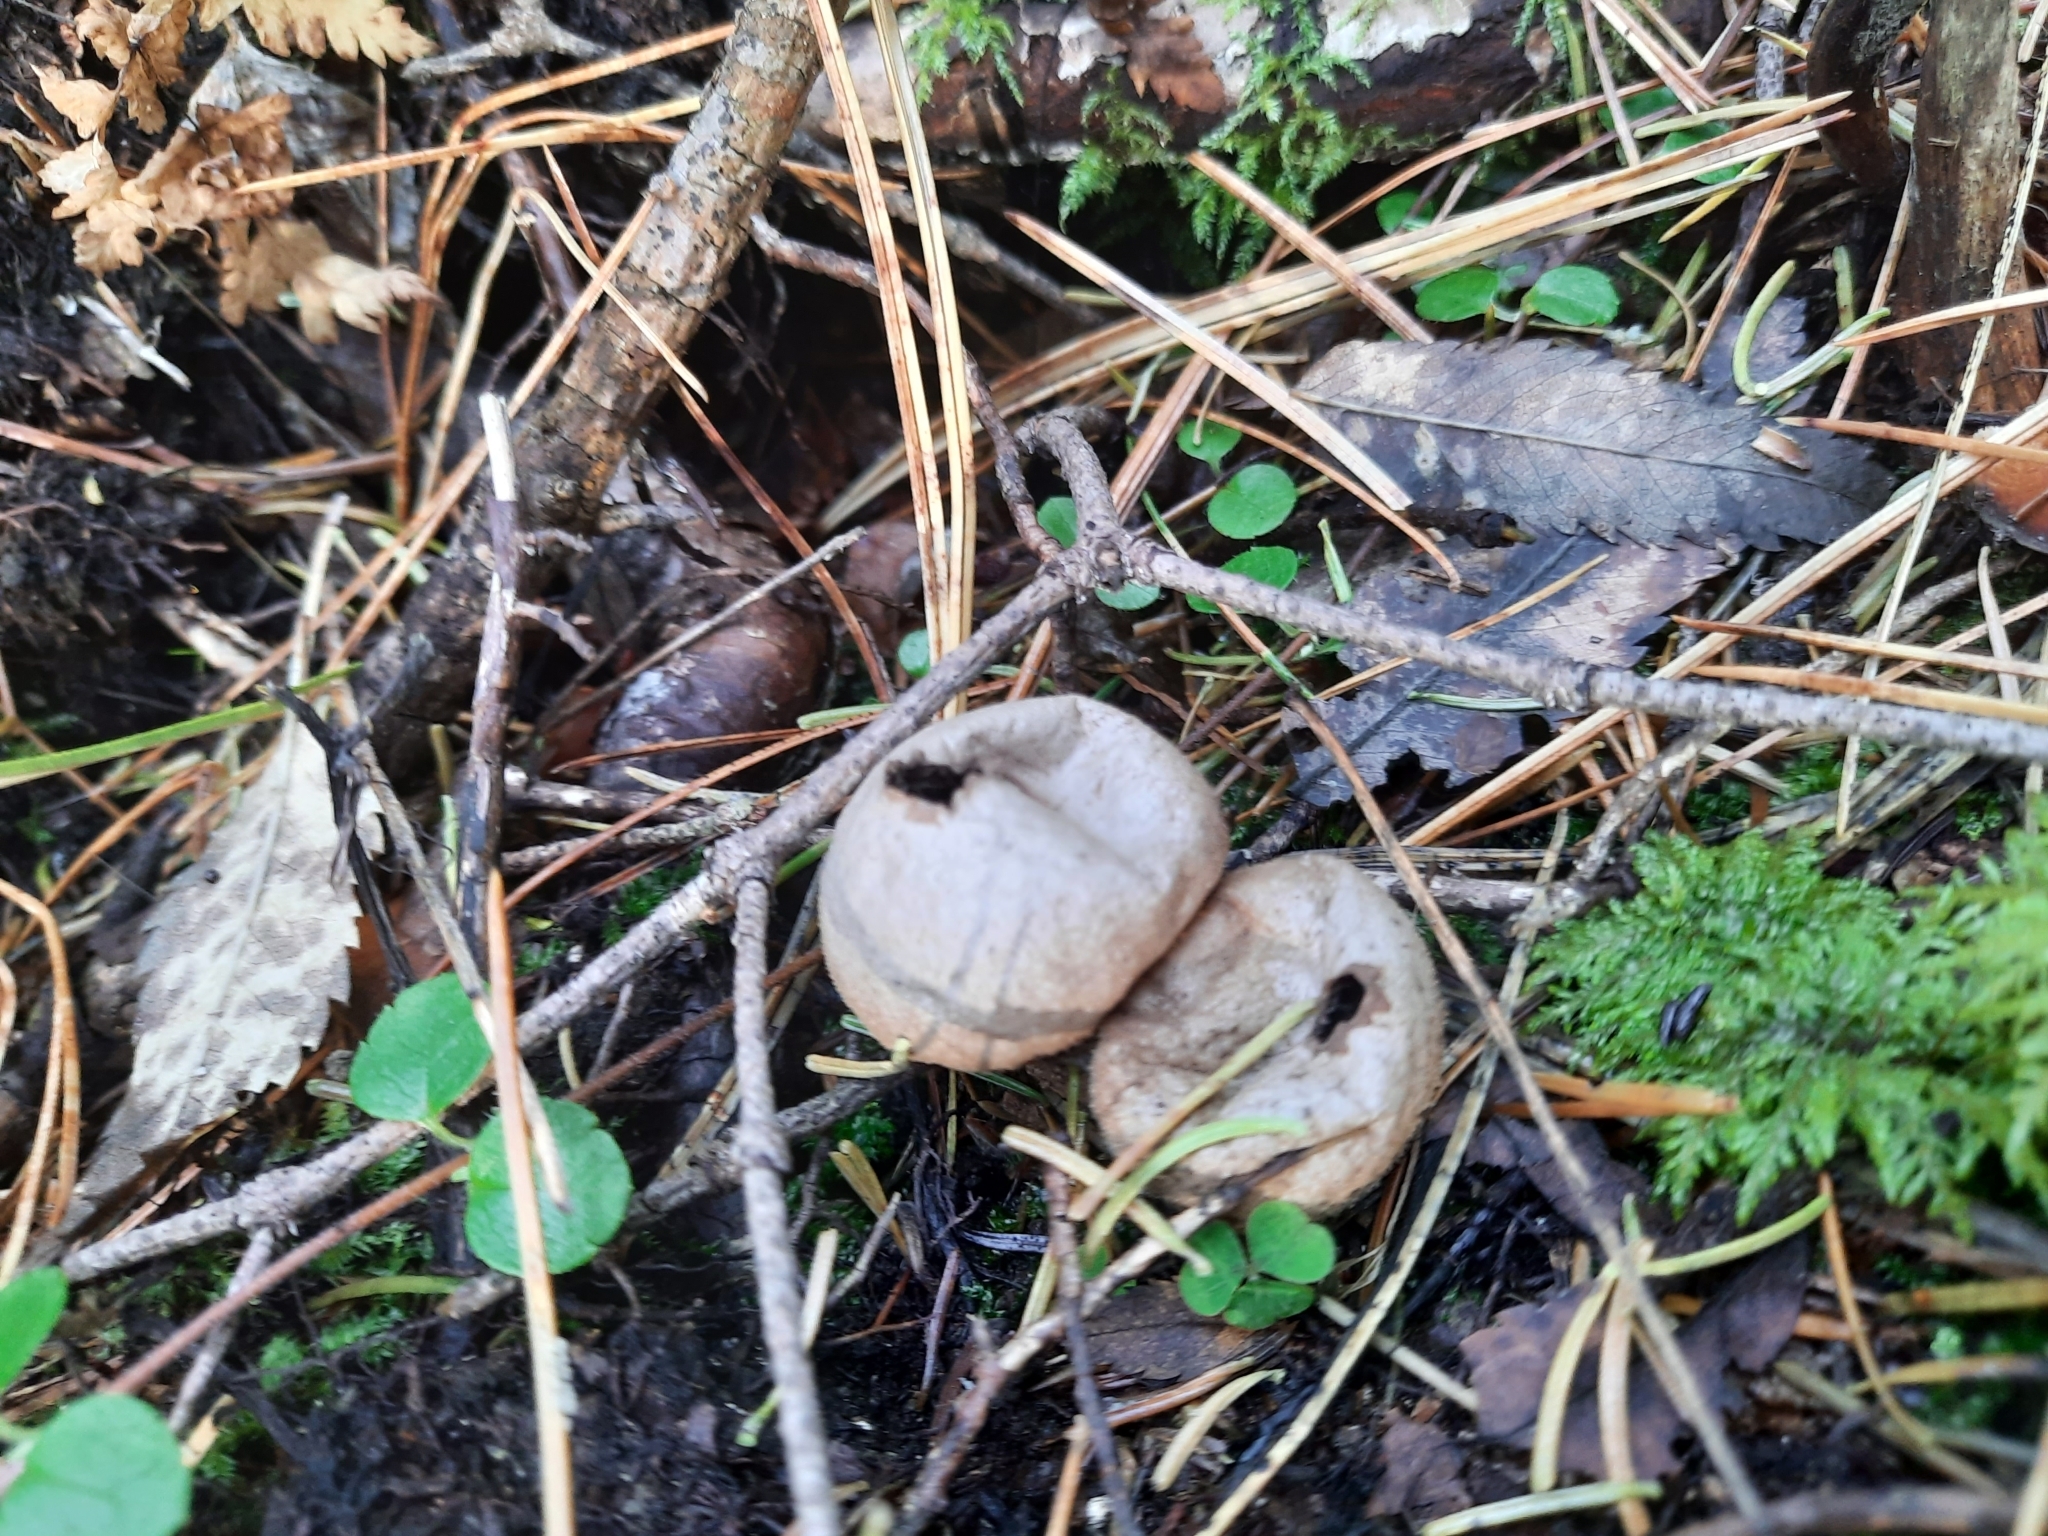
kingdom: Fungi
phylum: Basidiomycota
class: Agaricomycetes
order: Agaricales
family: Lycoperdaceae
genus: Lycoperdon
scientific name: Lycoperdon perlatum
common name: Common puffball
